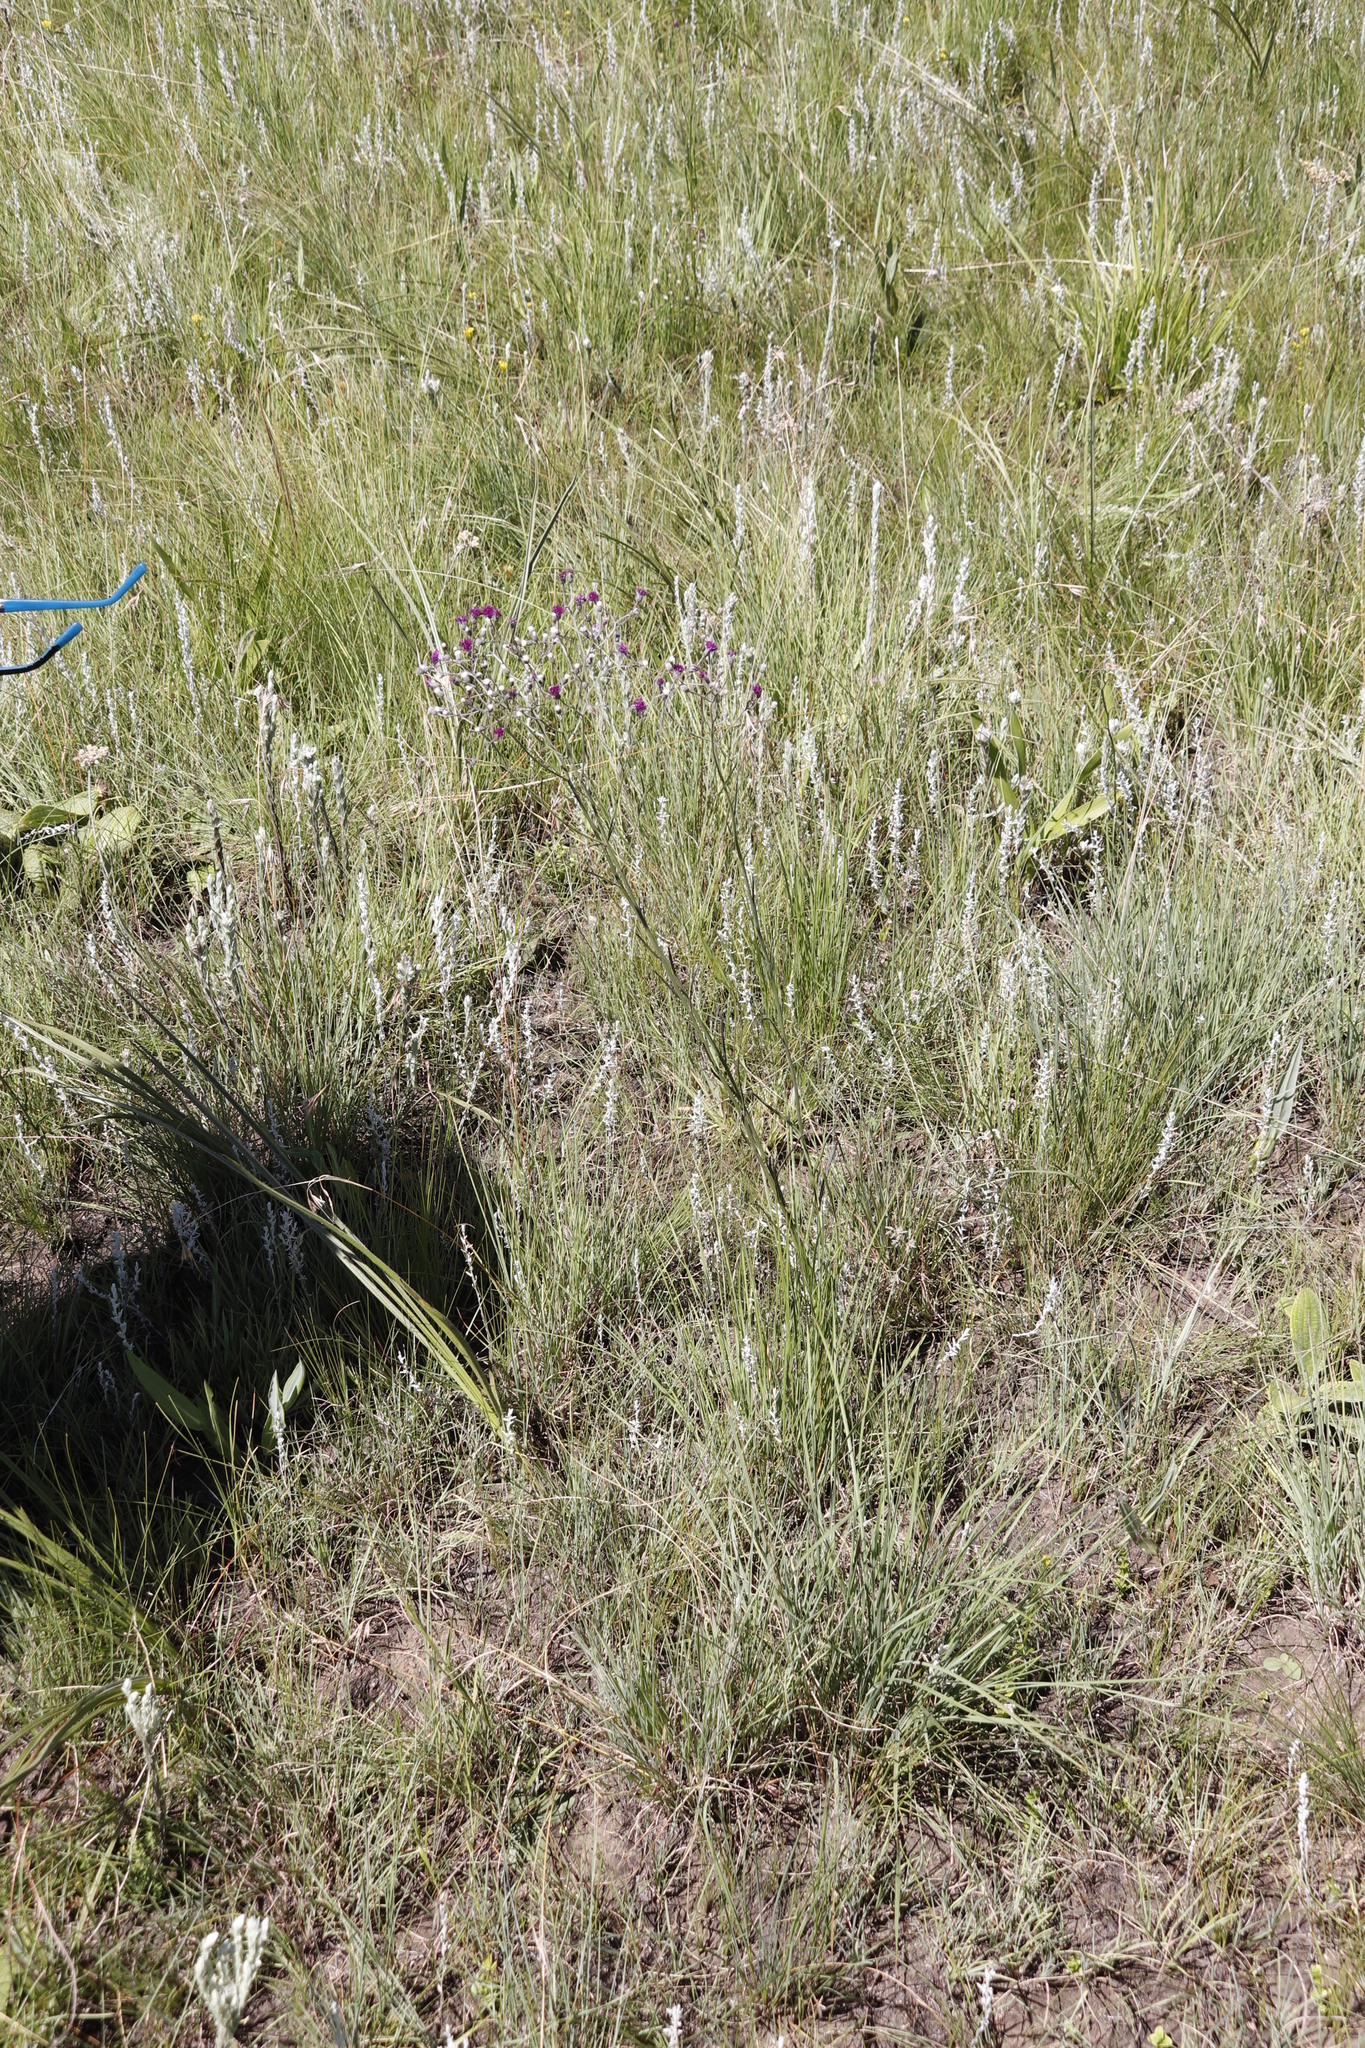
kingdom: Plantae
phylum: Tracheophyta
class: Magnoliopsida
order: Asterales
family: Asteraceae
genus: Hilliardiella
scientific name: Hilliardiella nudicaulis
